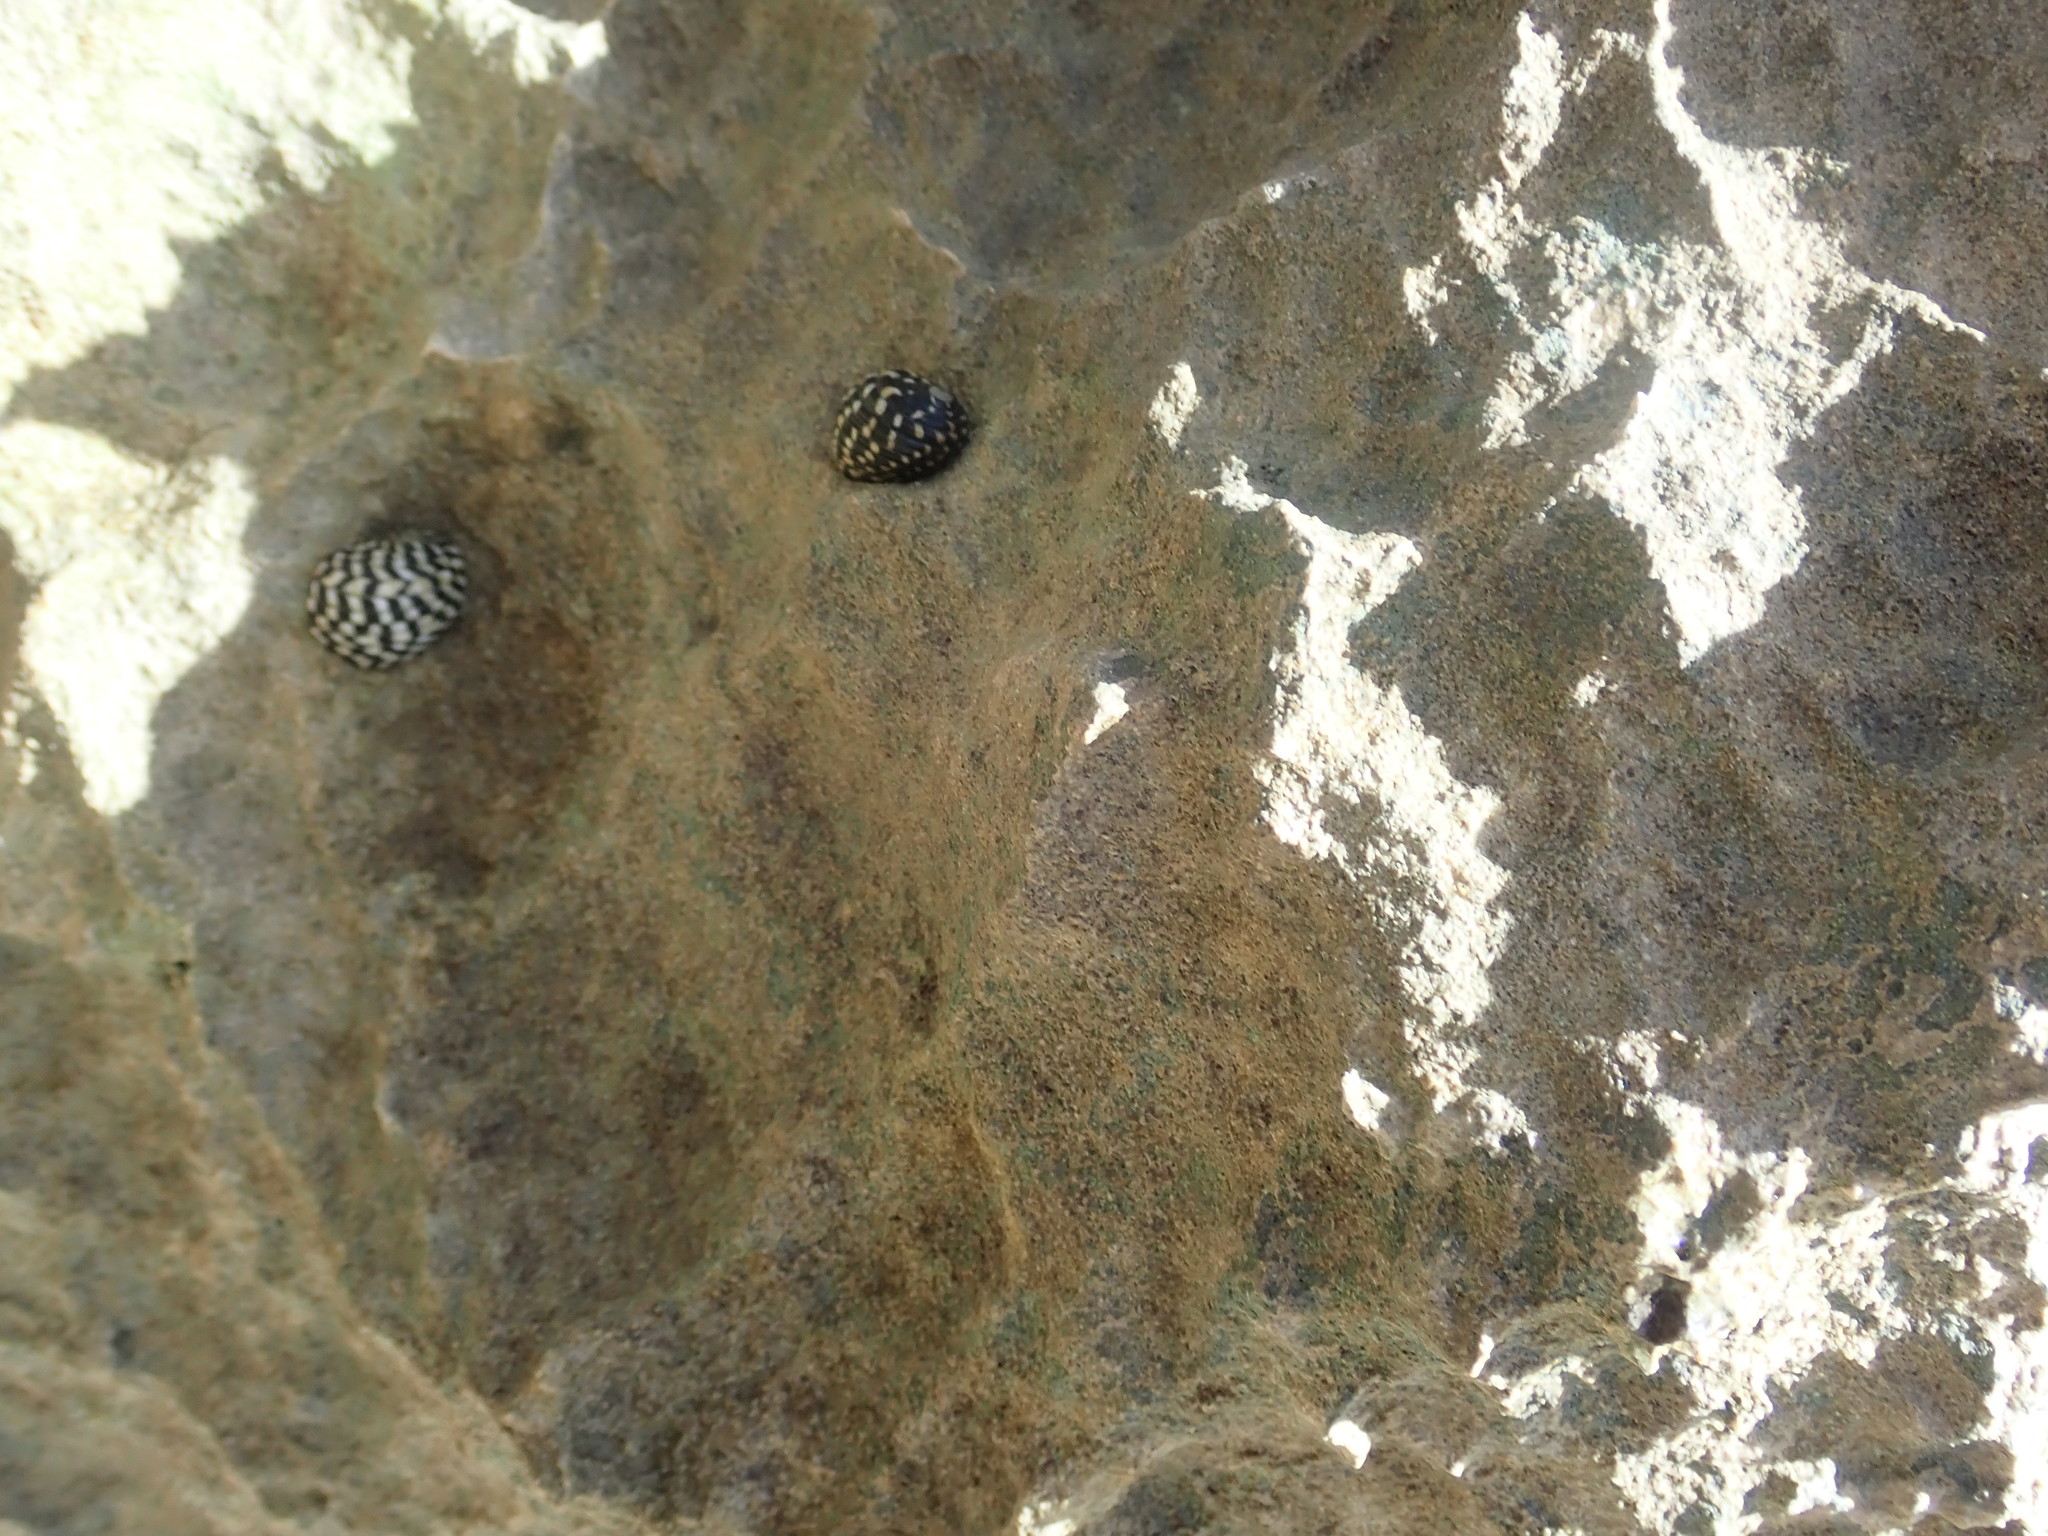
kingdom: Animalia
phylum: Mollusca
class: Gastropoda
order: Cycloneritida
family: Neritidae
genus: Nerita
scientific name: Nerita tessellata
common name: Checkered nerite
